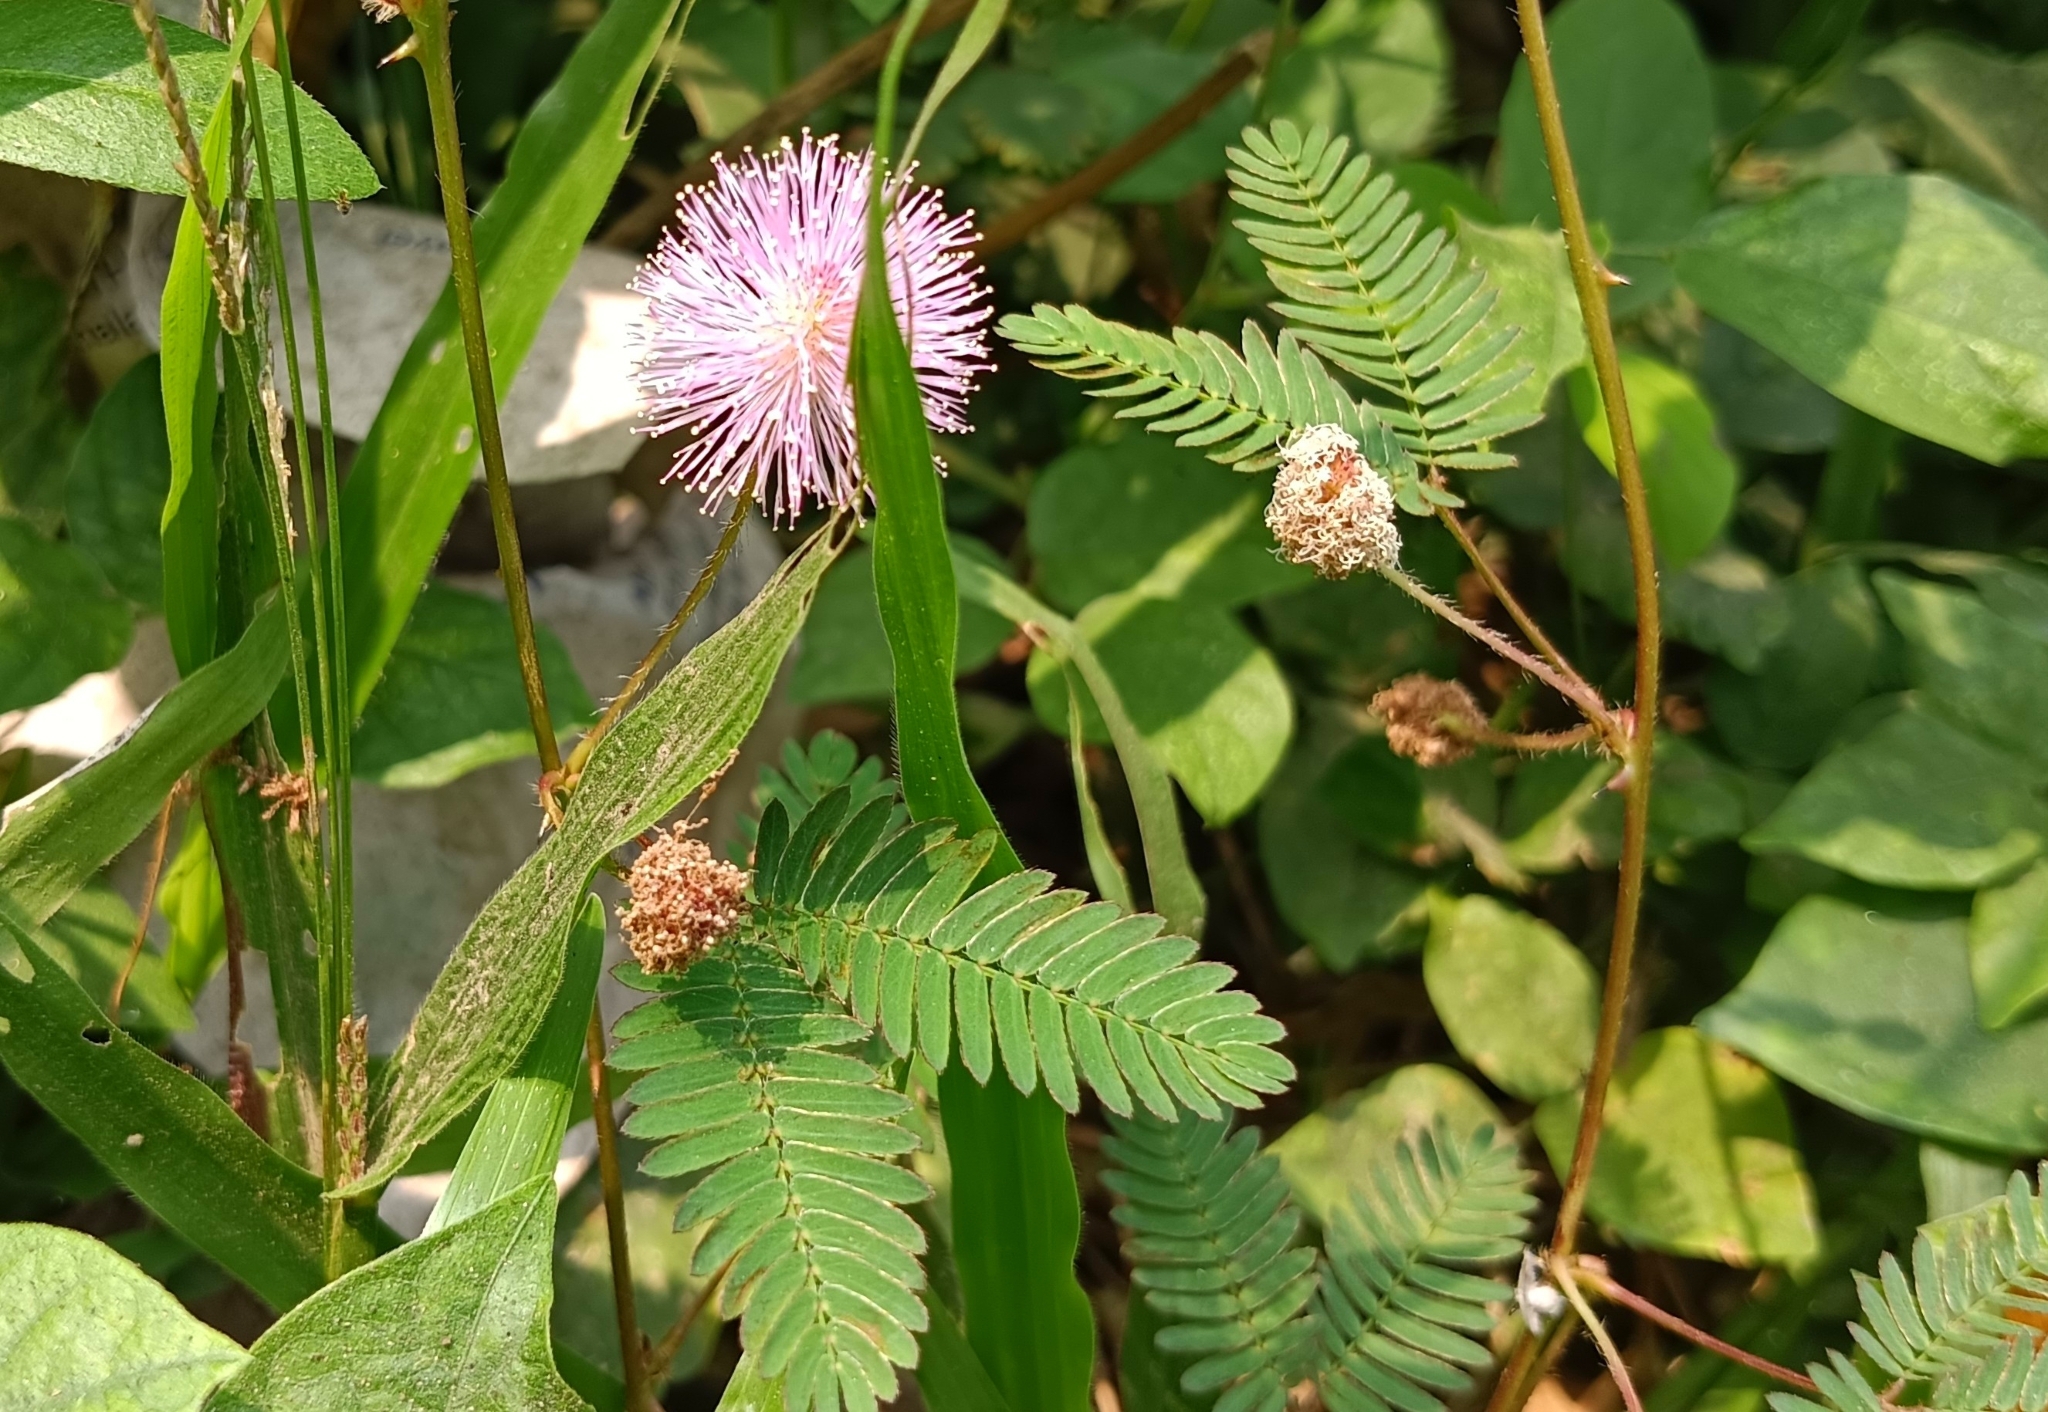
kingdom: Plantae
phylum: Tracheophyta
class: Magnoliopsida
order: Fabales
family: Fabaceae
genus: Mimosa
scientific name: Mimosa pudica
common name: Sensitive plant
